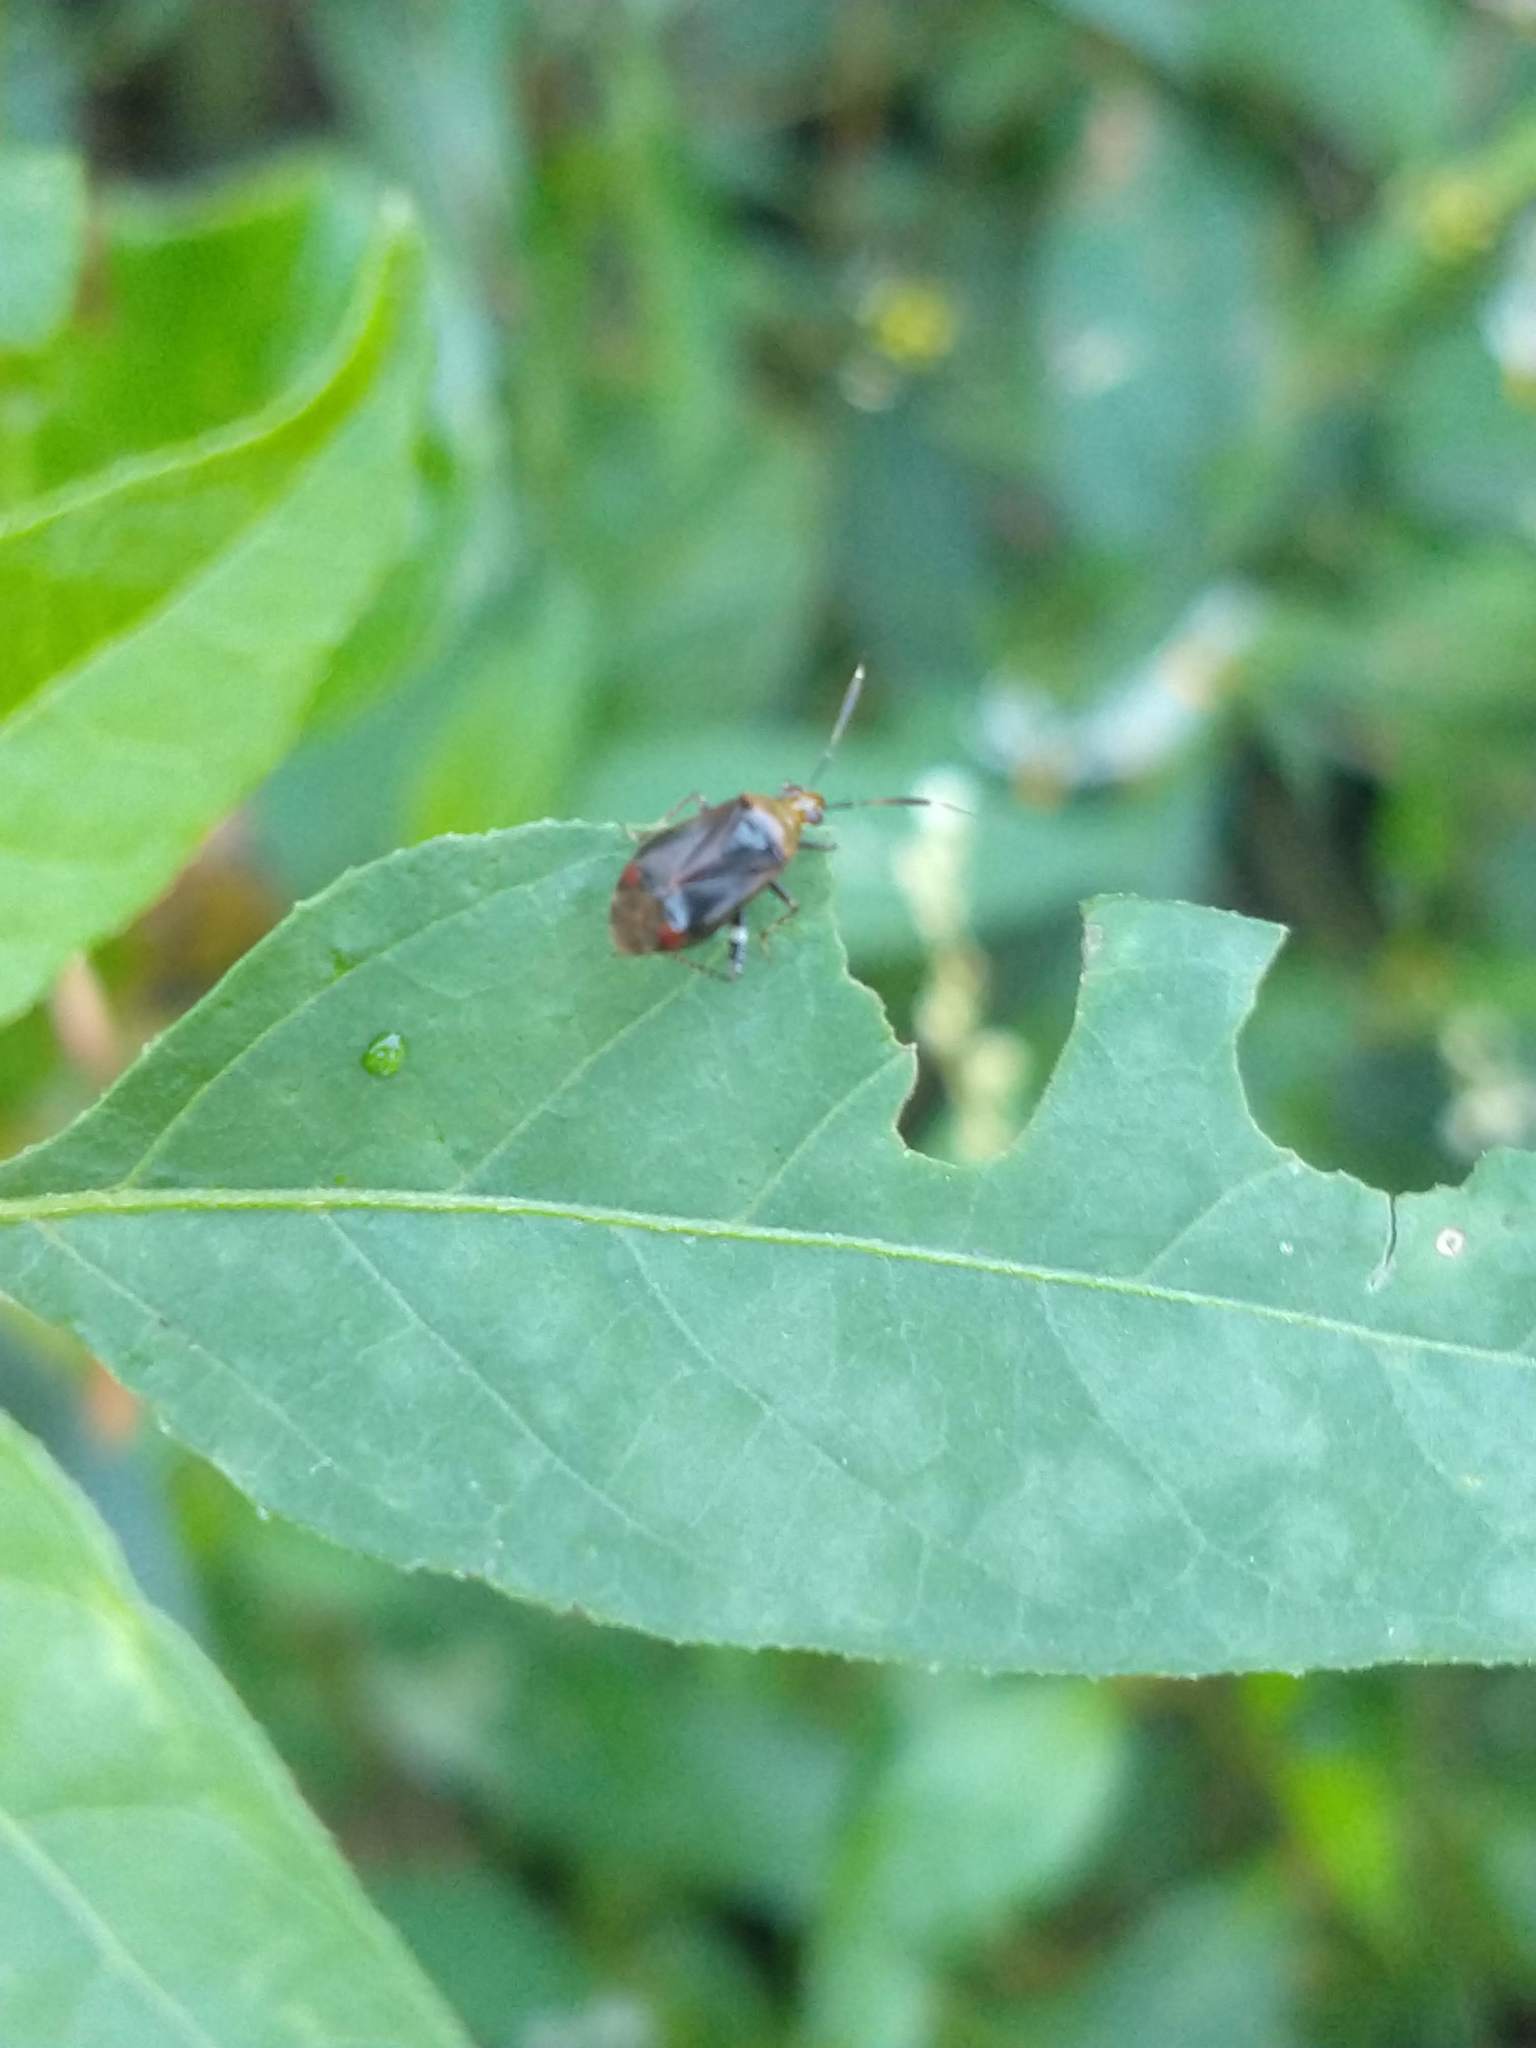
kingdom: Animalia
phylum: Arthropoda
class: Insecta
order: Hemiptera
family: Miridae
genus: Horciasinus
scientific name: Horciasinus argentinus
